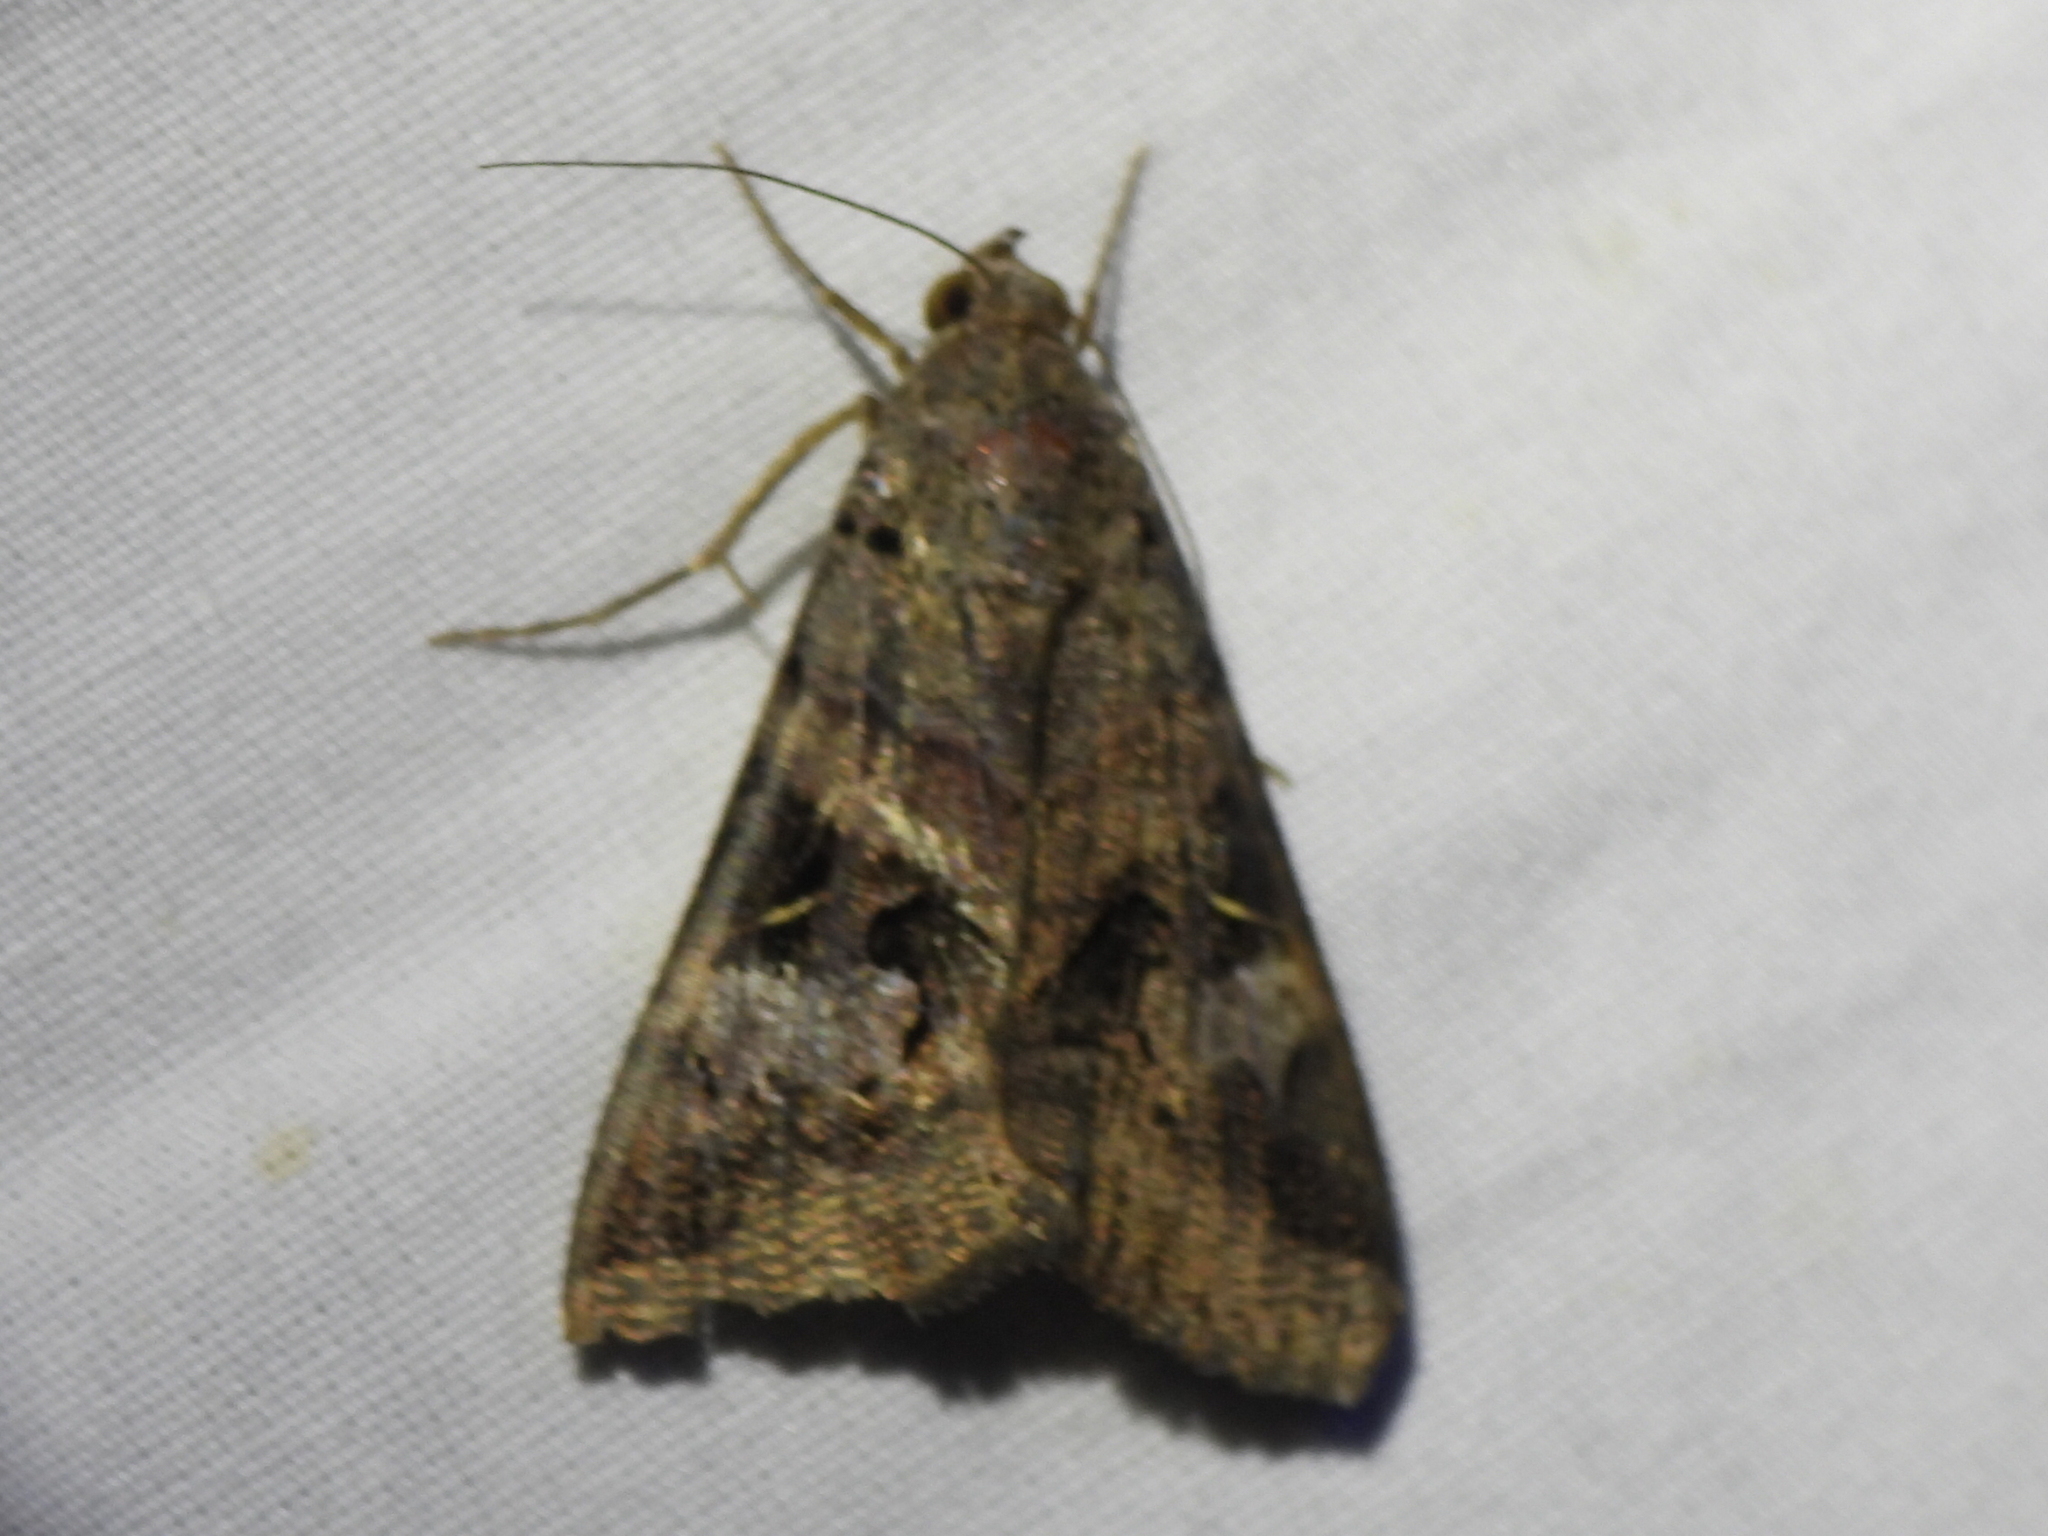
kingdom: Animalia
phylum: Arthropoda
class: Insecta
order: Lepidoptera
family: Erebidae
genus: Melipotis
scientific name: Melipotis indomita
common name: Moth
